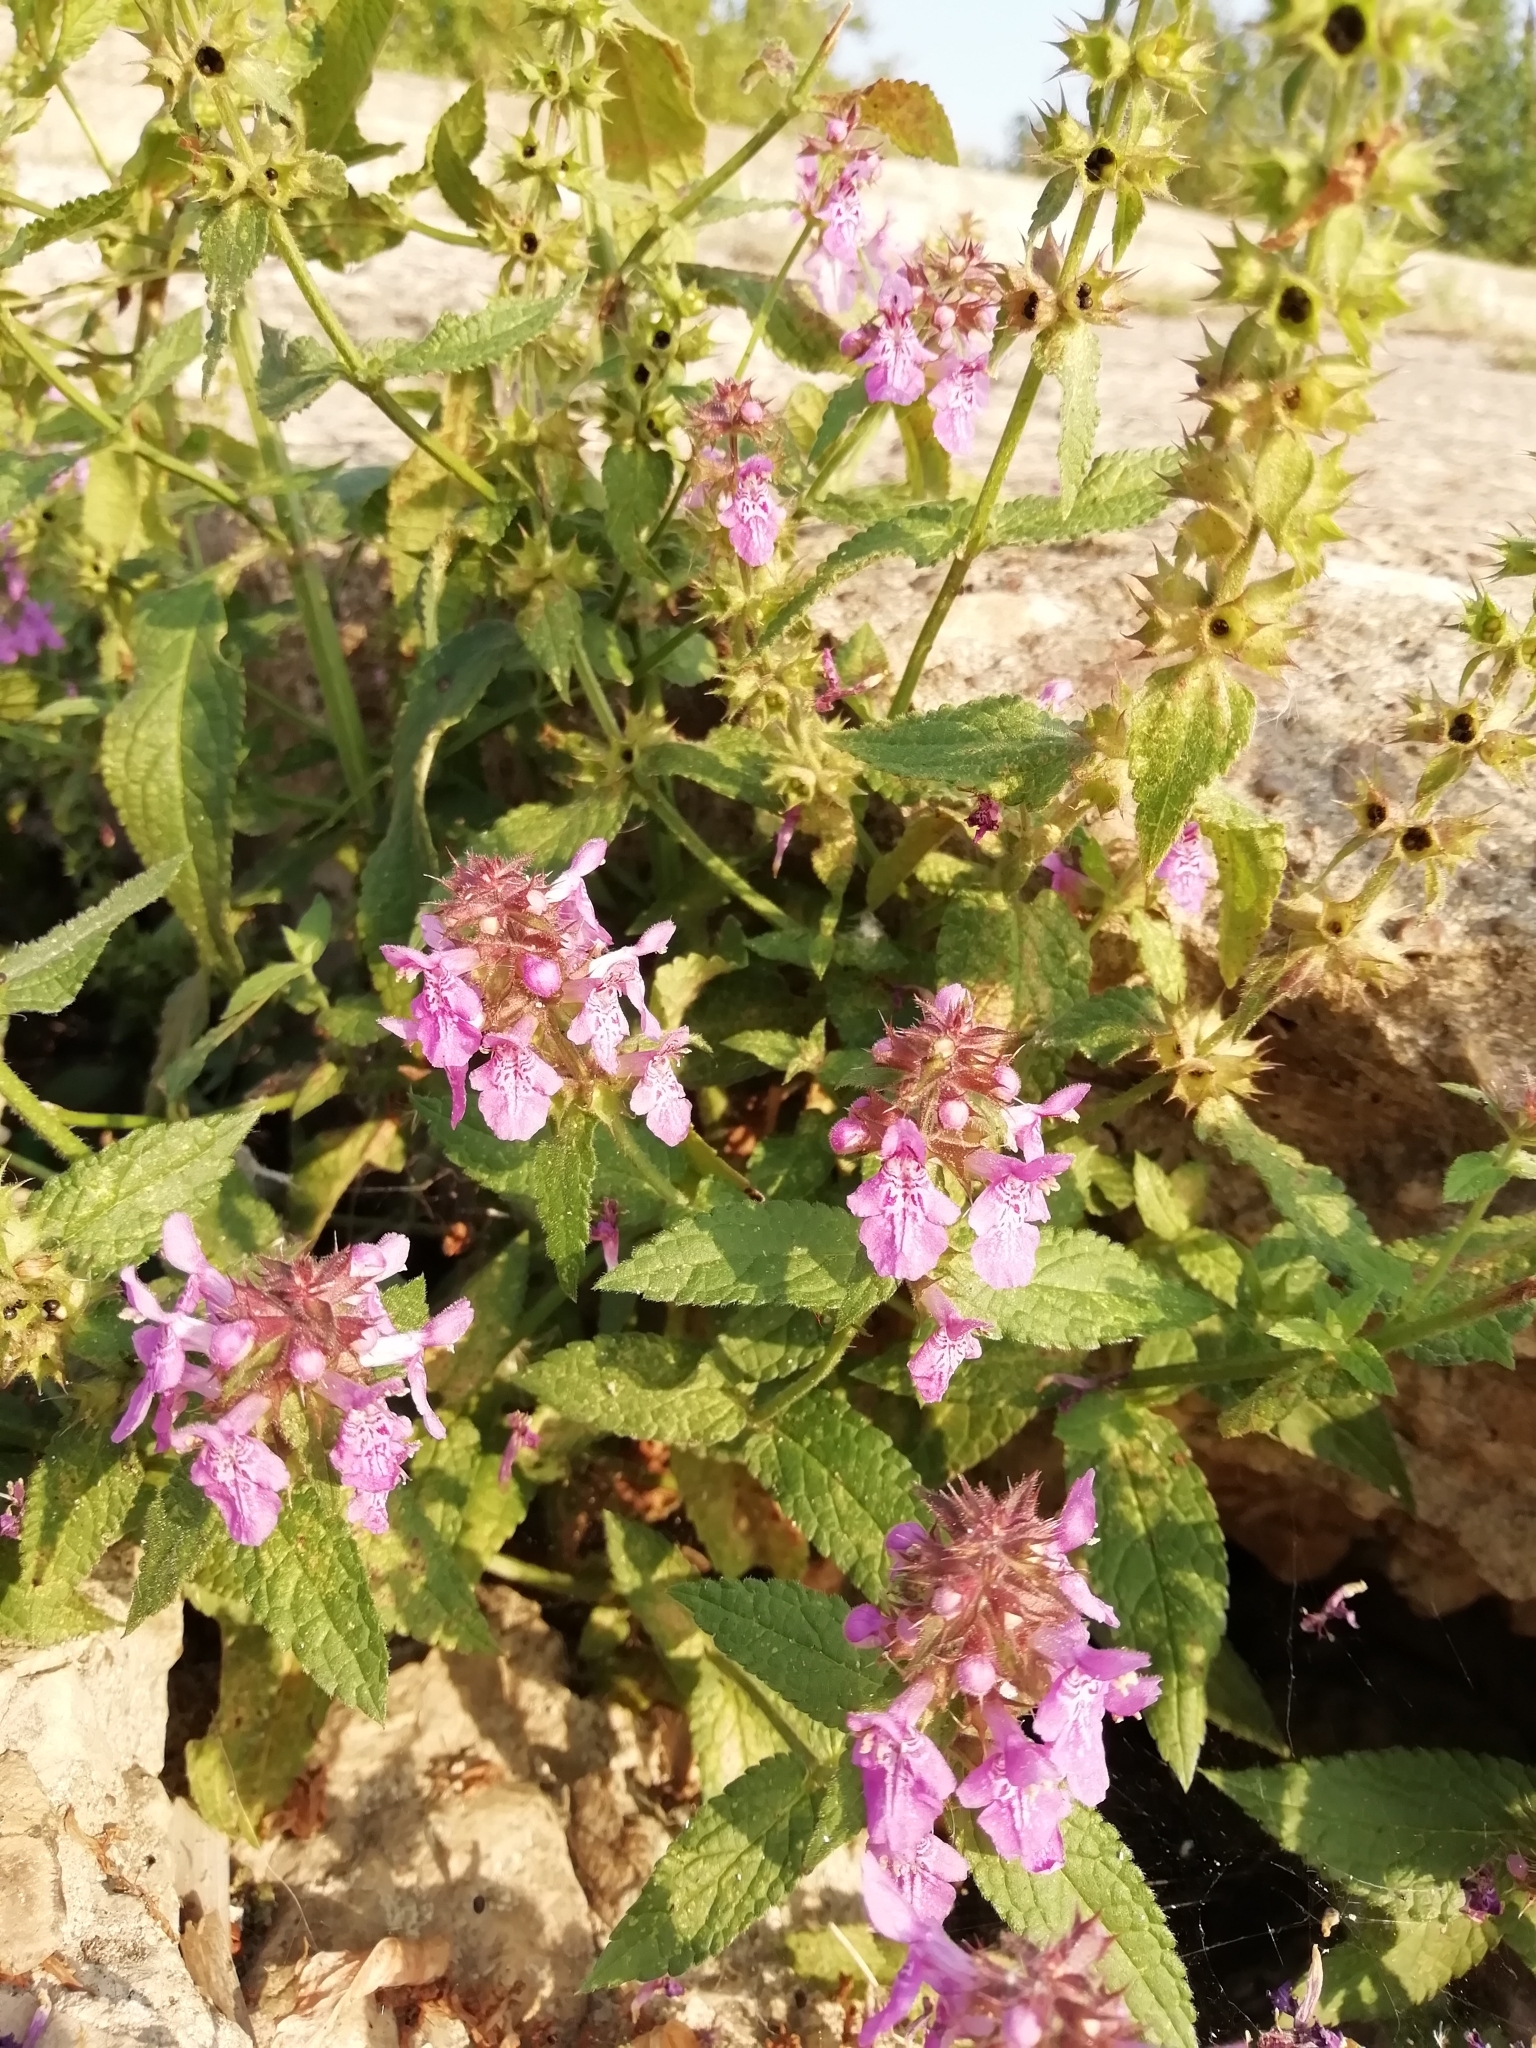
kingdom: Plantae
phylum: Tracheophyta
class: Magnoliopsida
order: Lamiales
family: Lamiaceae
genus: Stachys
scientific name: Stachys palustris
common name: Marsh woundwort
